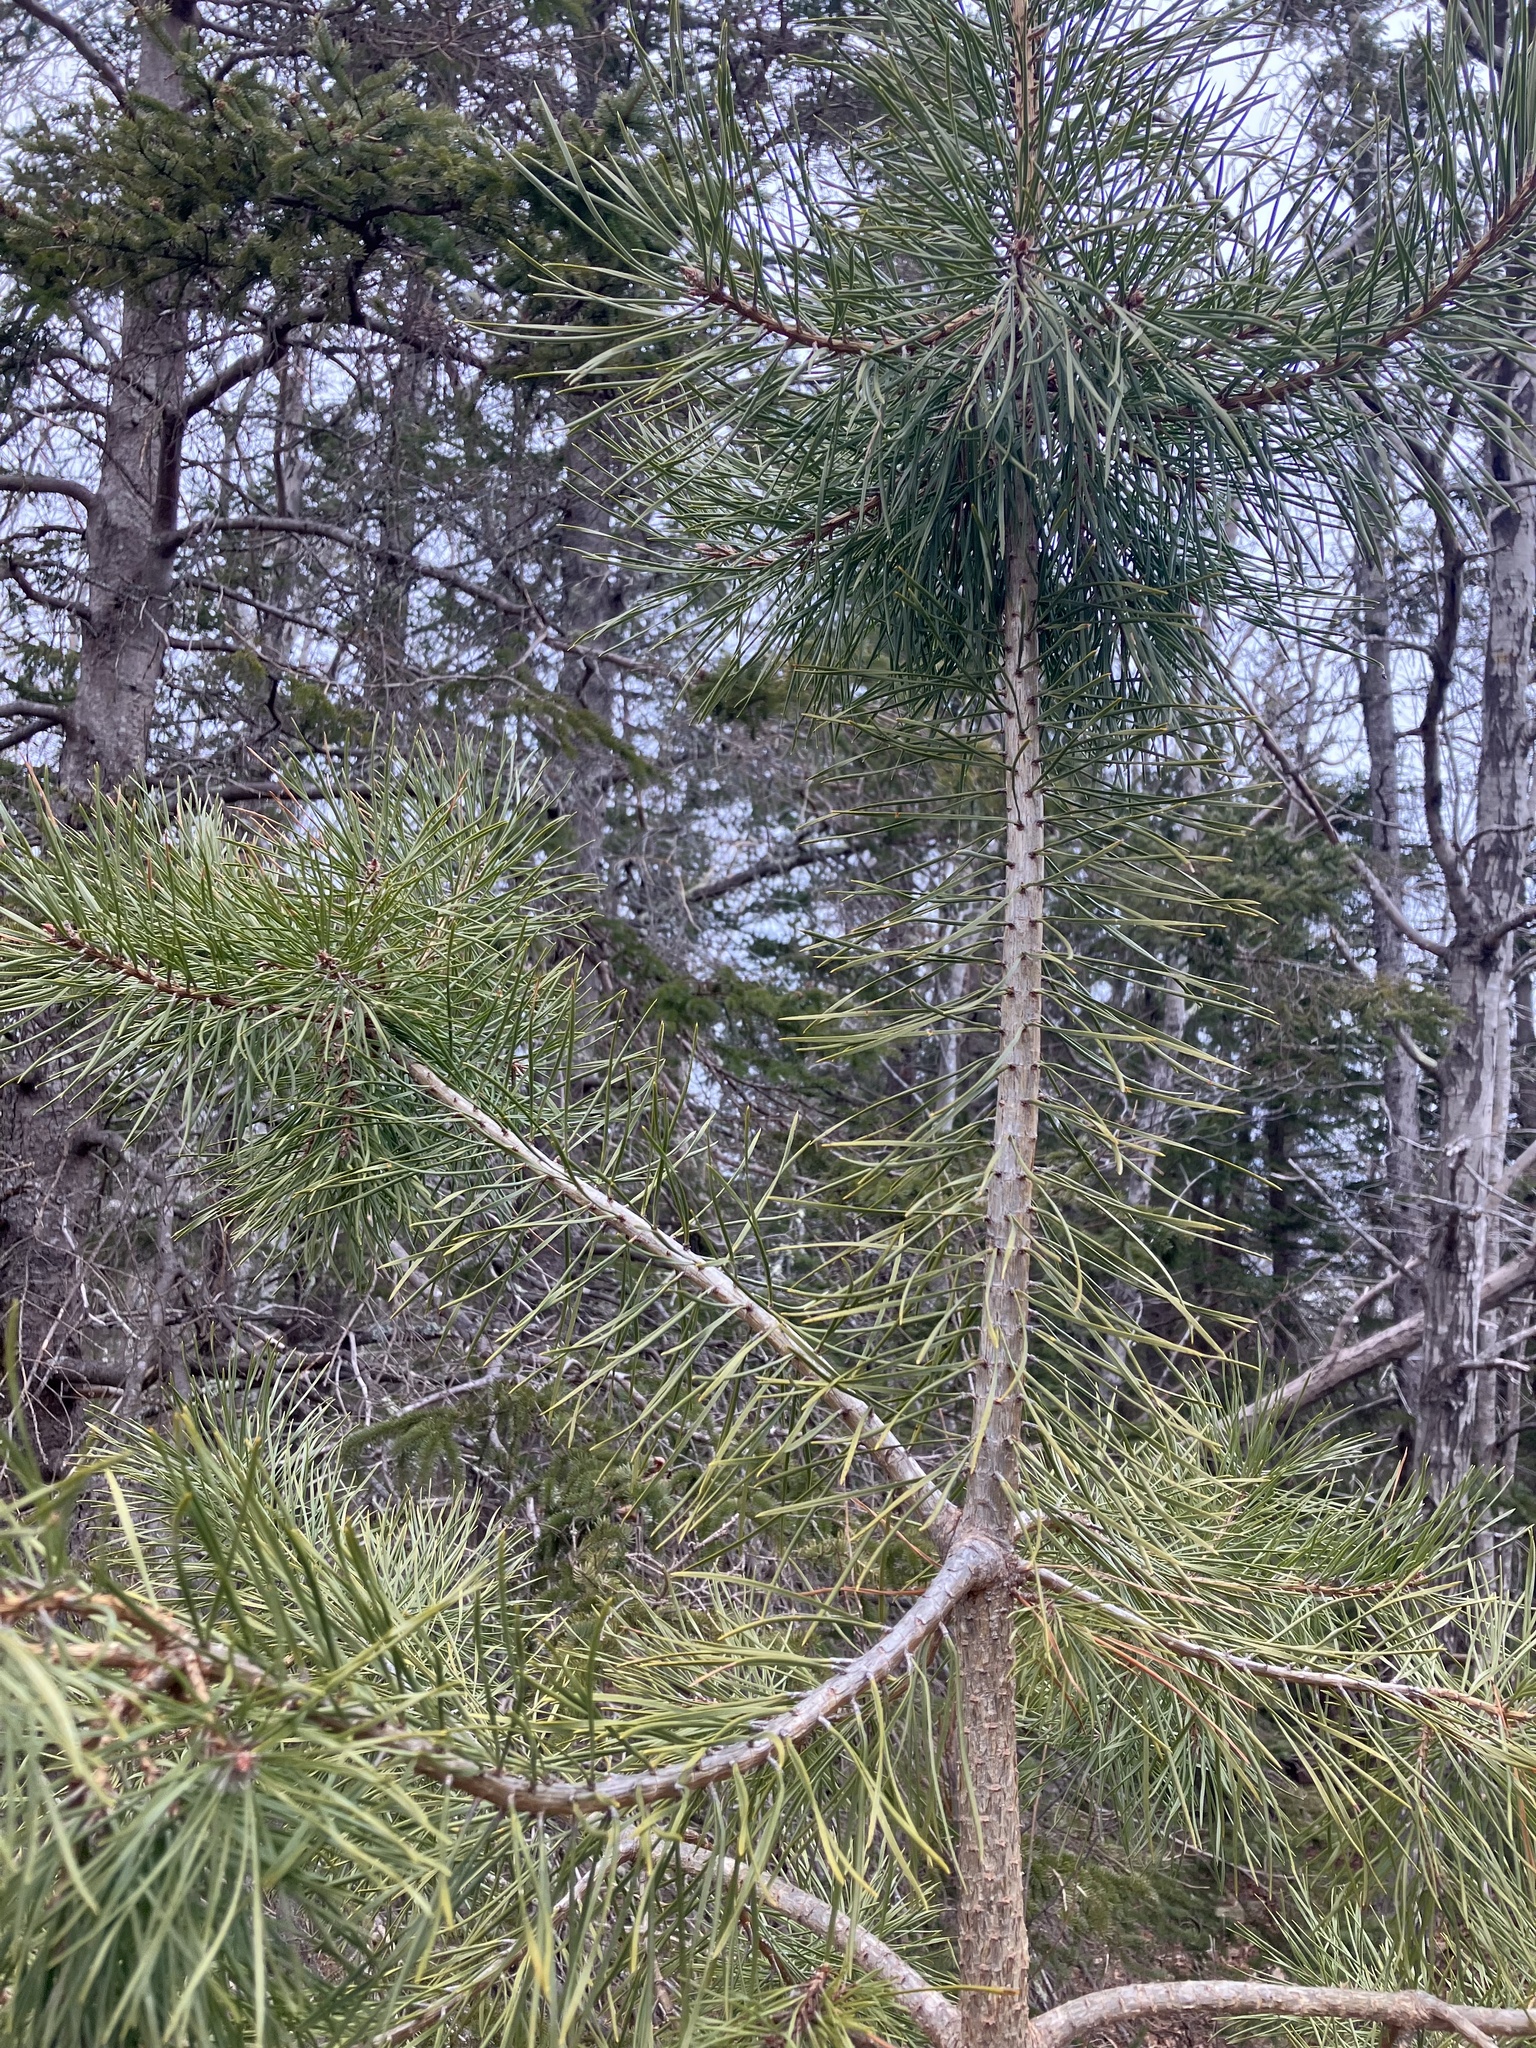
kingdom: Plantae
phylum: Tracheophyta
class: Pinopsida
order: Pinales
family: Pinaceae
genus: Pinus
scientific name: Pinus resinosa
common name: Norway pine
